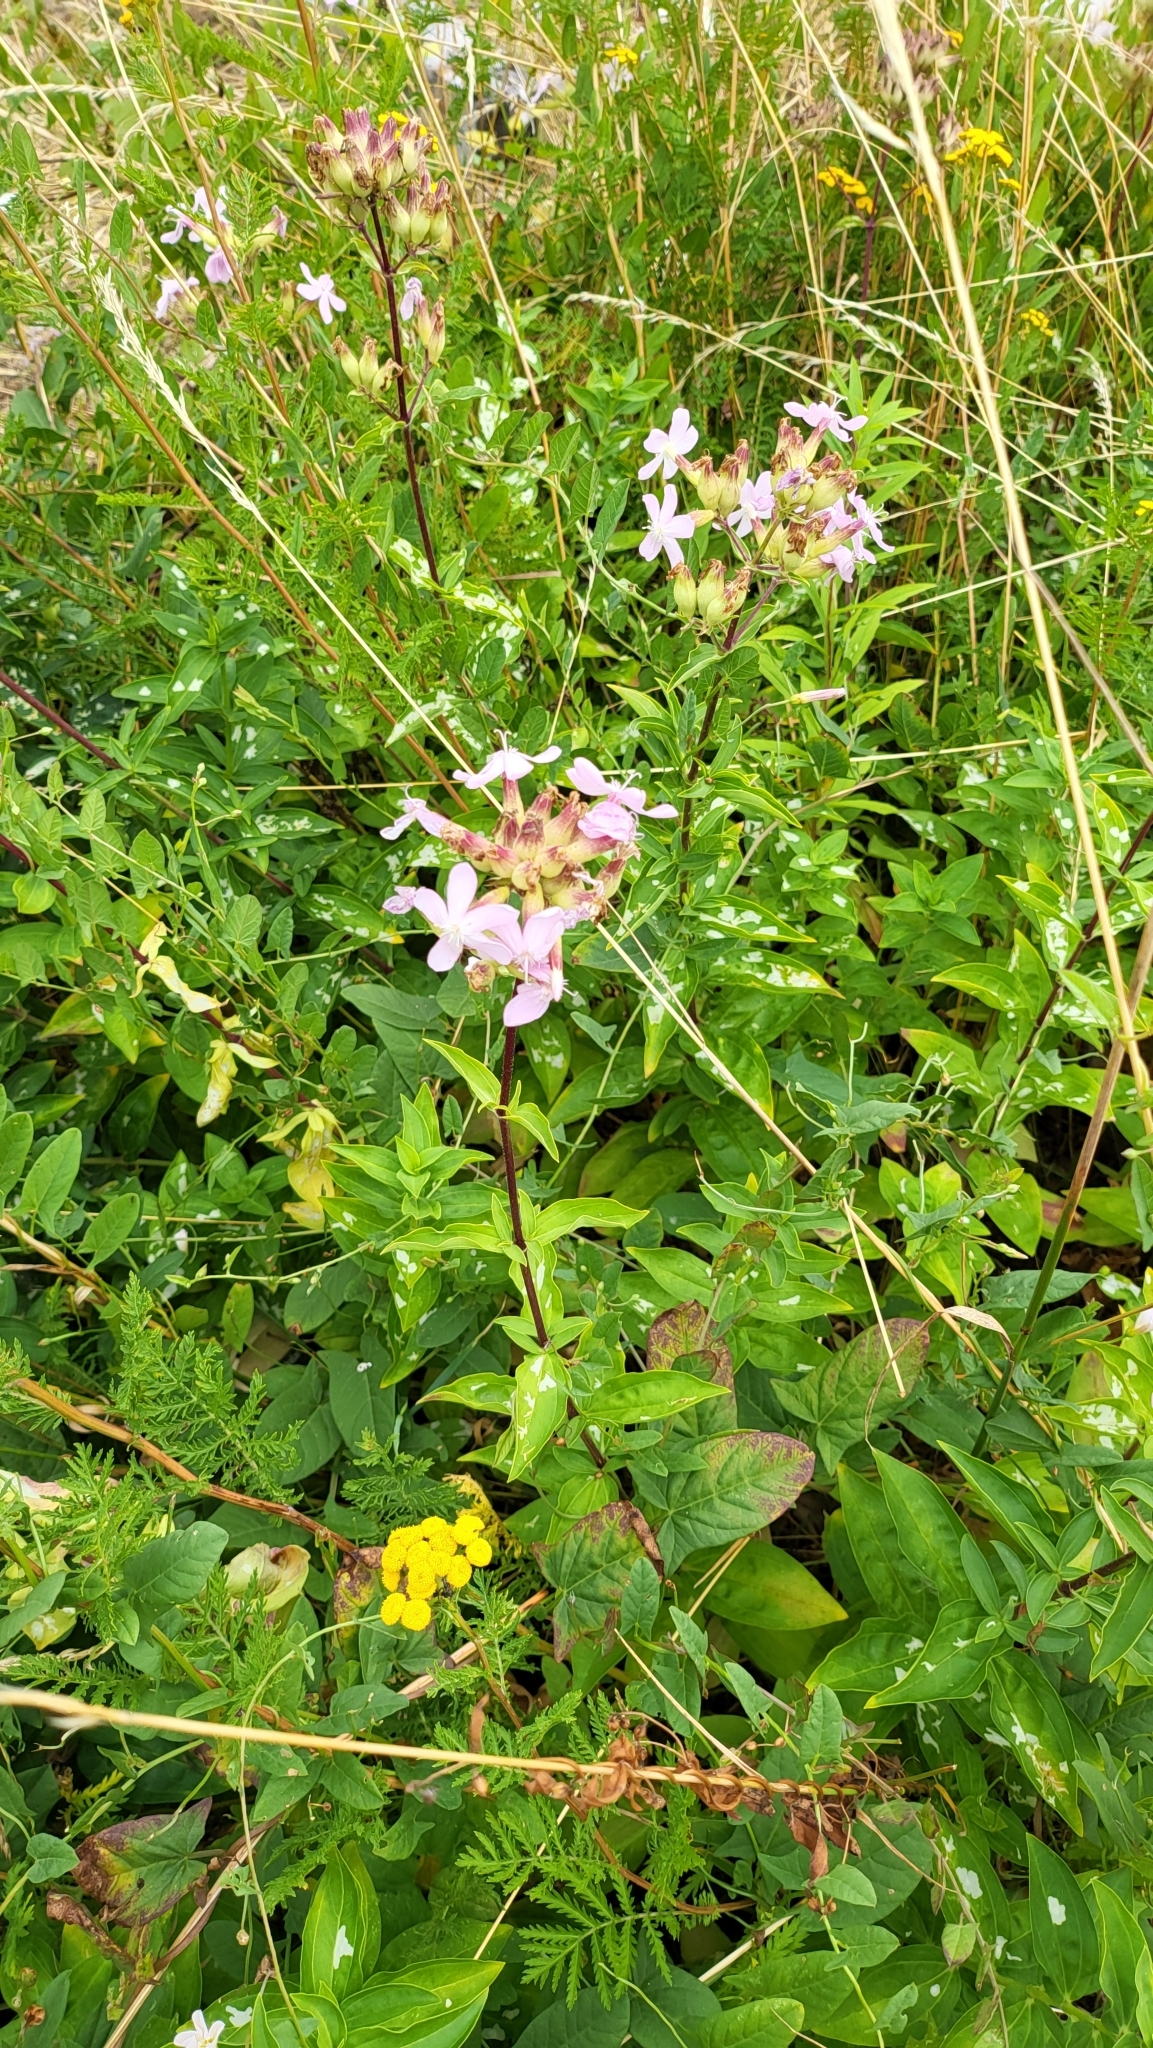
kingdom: Plantae
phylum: Tracheophyta
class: Magnoliopsida
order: Caryophyllales
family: Caryophyllaceae
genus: Saponaria
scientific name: Saponaria officinalis
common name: Soapwort
